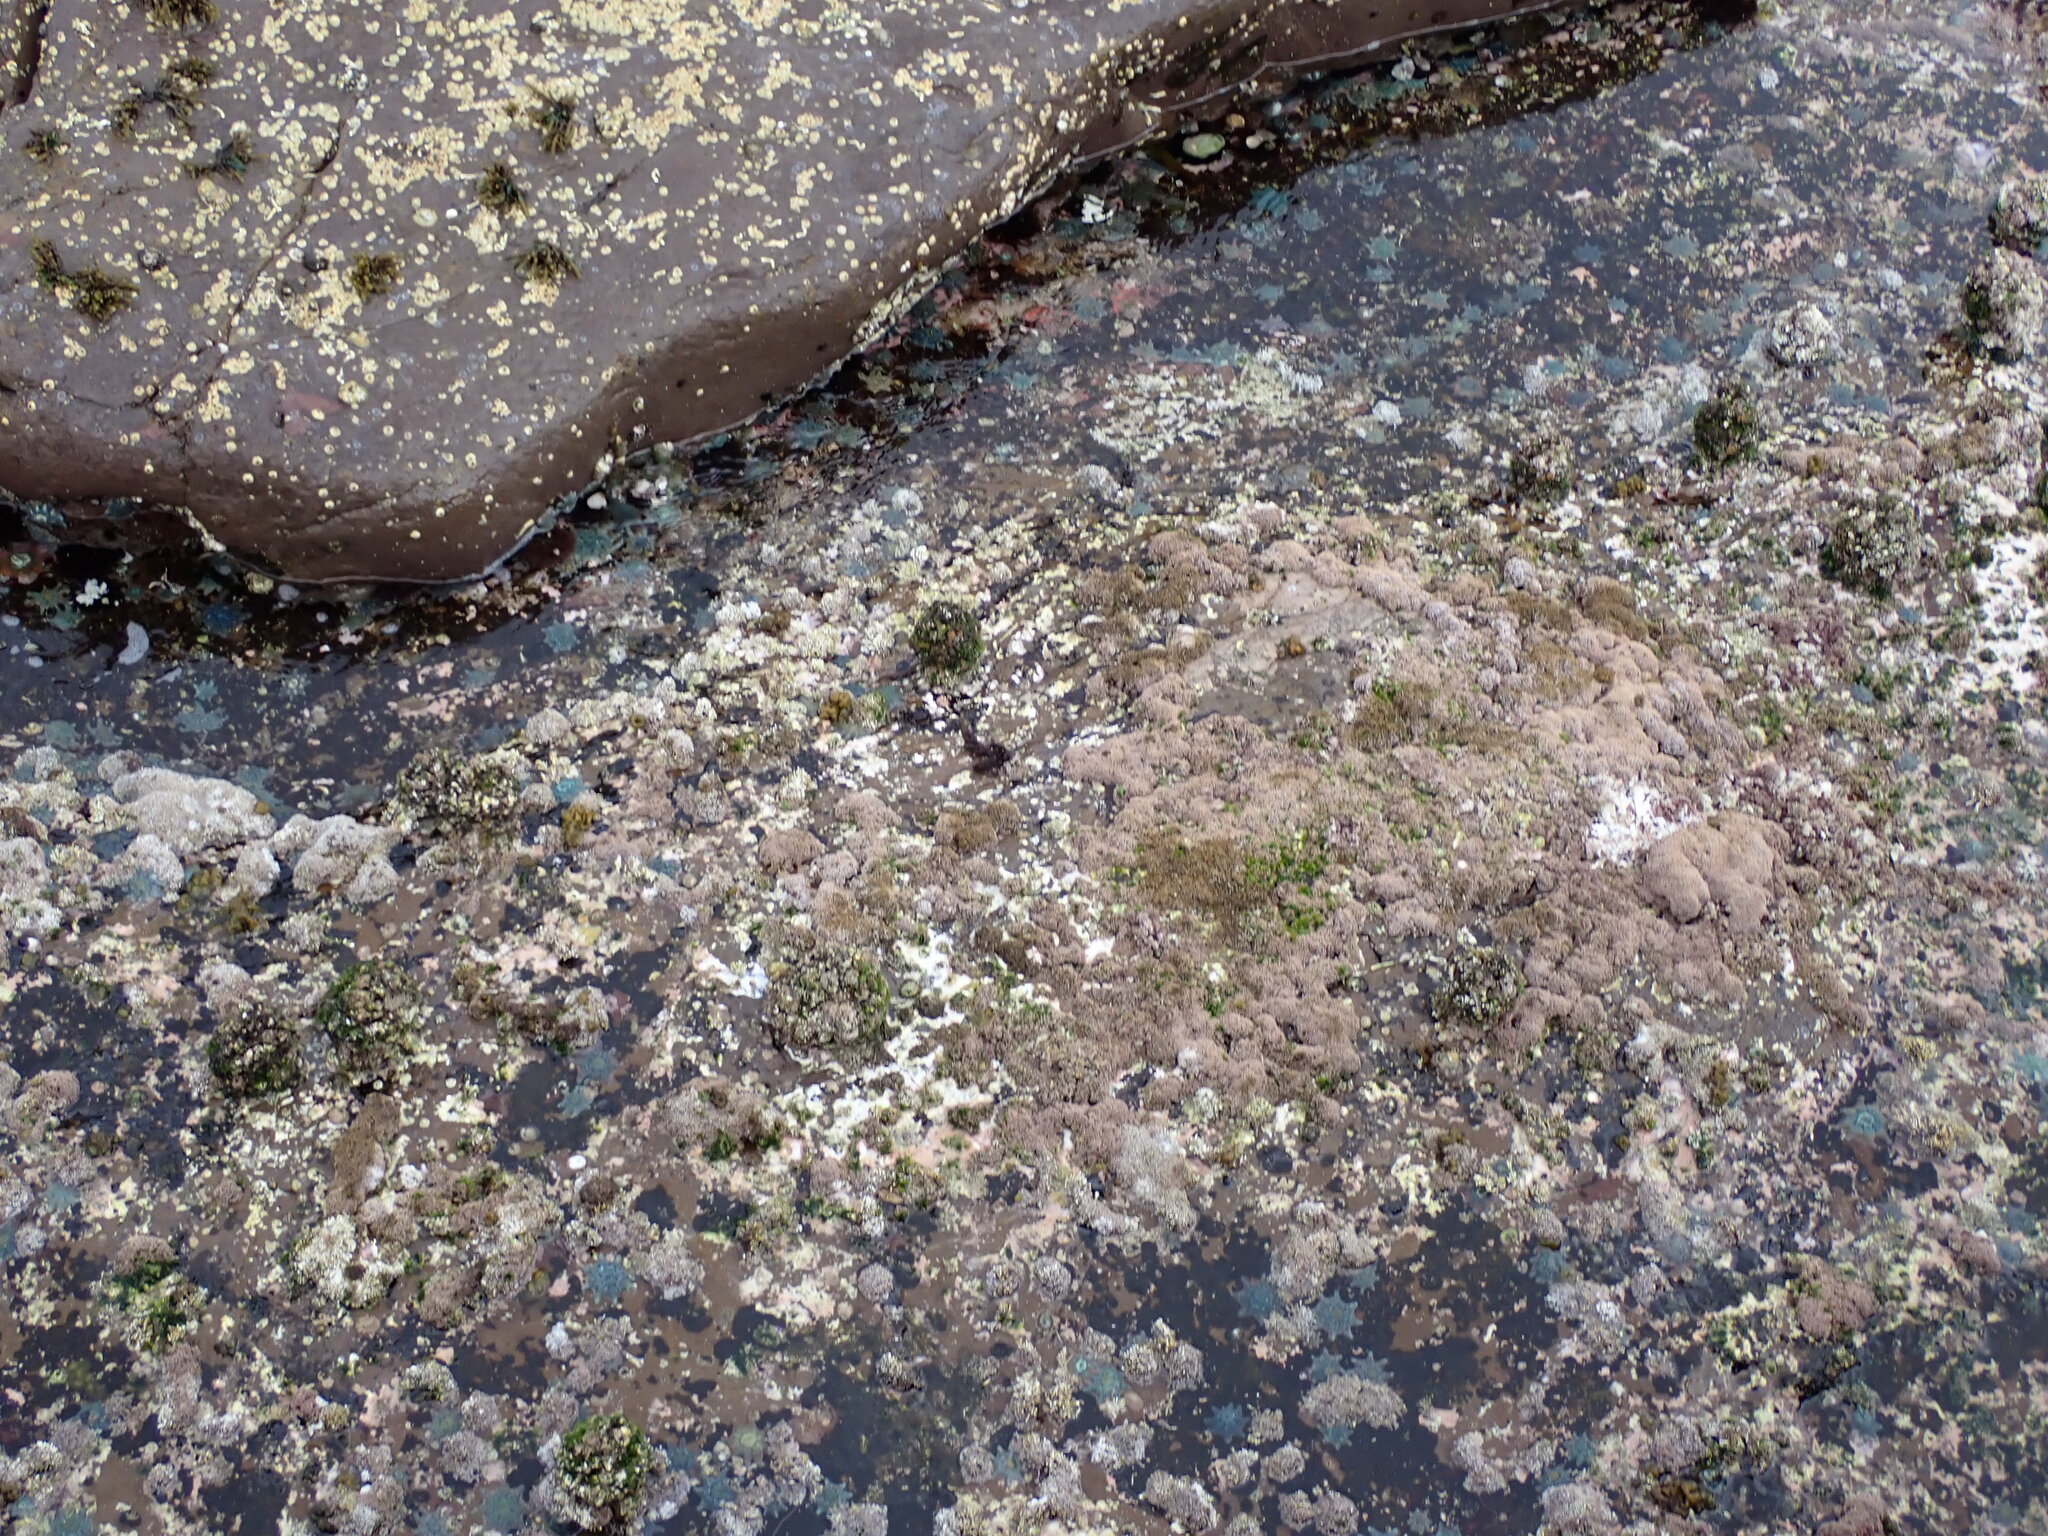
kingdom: Animalia
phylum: Echinodermata
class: Asteroidea
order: Valvatida
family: Asterinidae
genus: Meridiastra
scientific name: Meridiastra calcar
